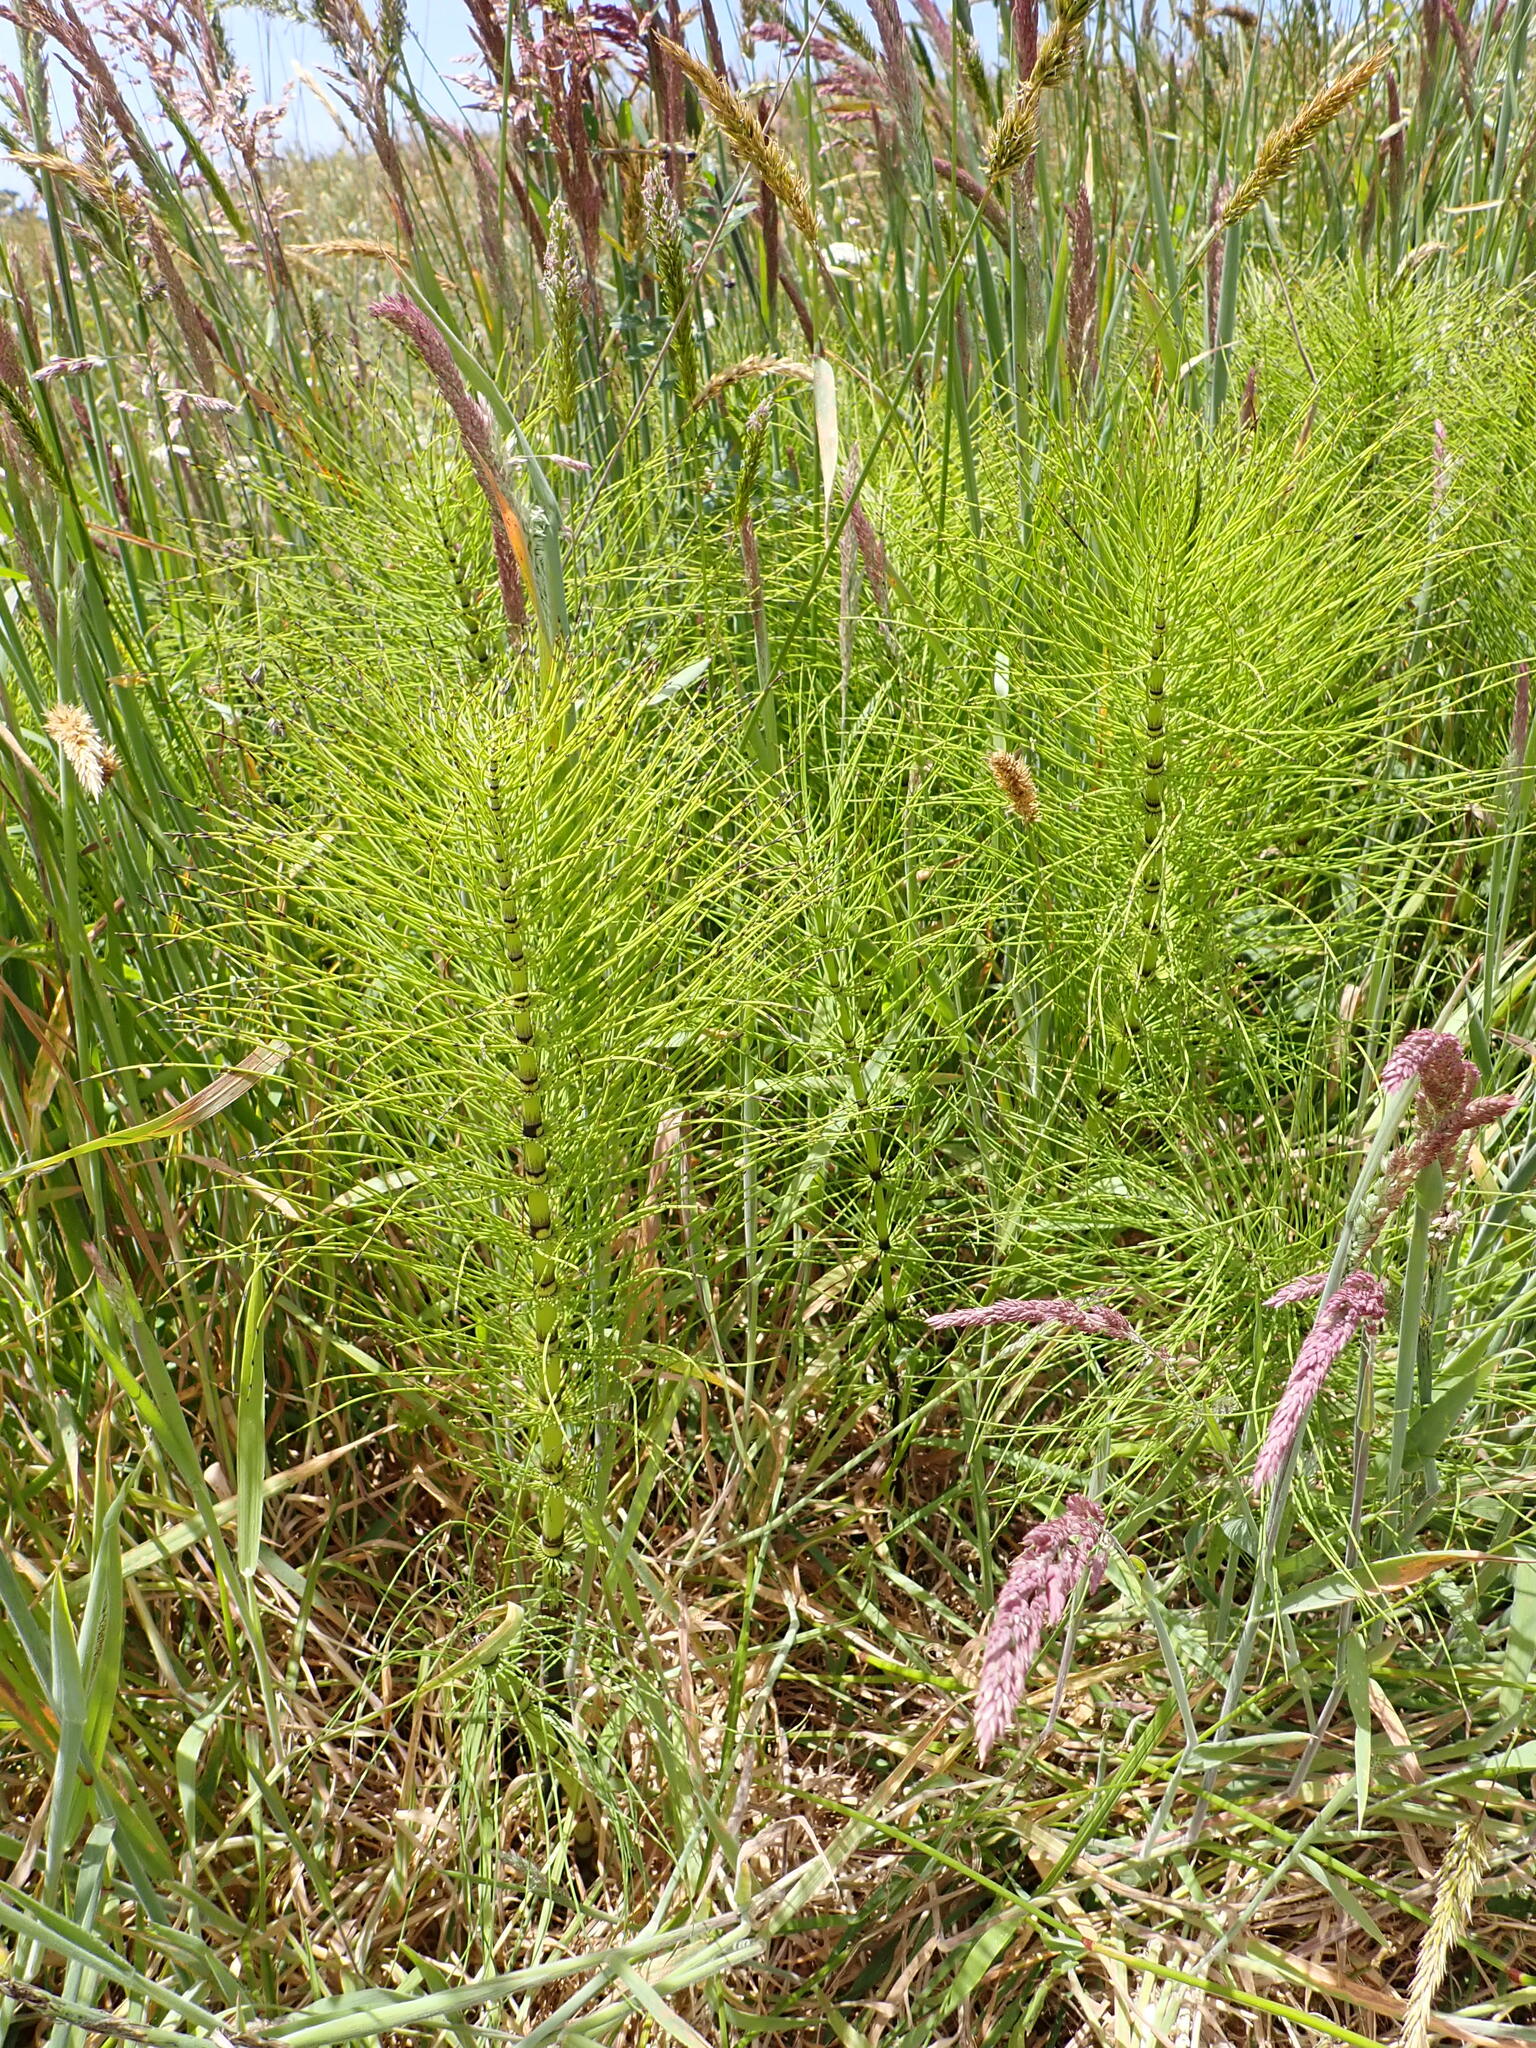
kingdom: Plantae
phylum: Tracheophyta
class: Polypodiopsida
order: Equisetales
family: Equisetaceae
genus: Equisetum
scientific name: Equisetum telmateia
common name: Great horsetail
